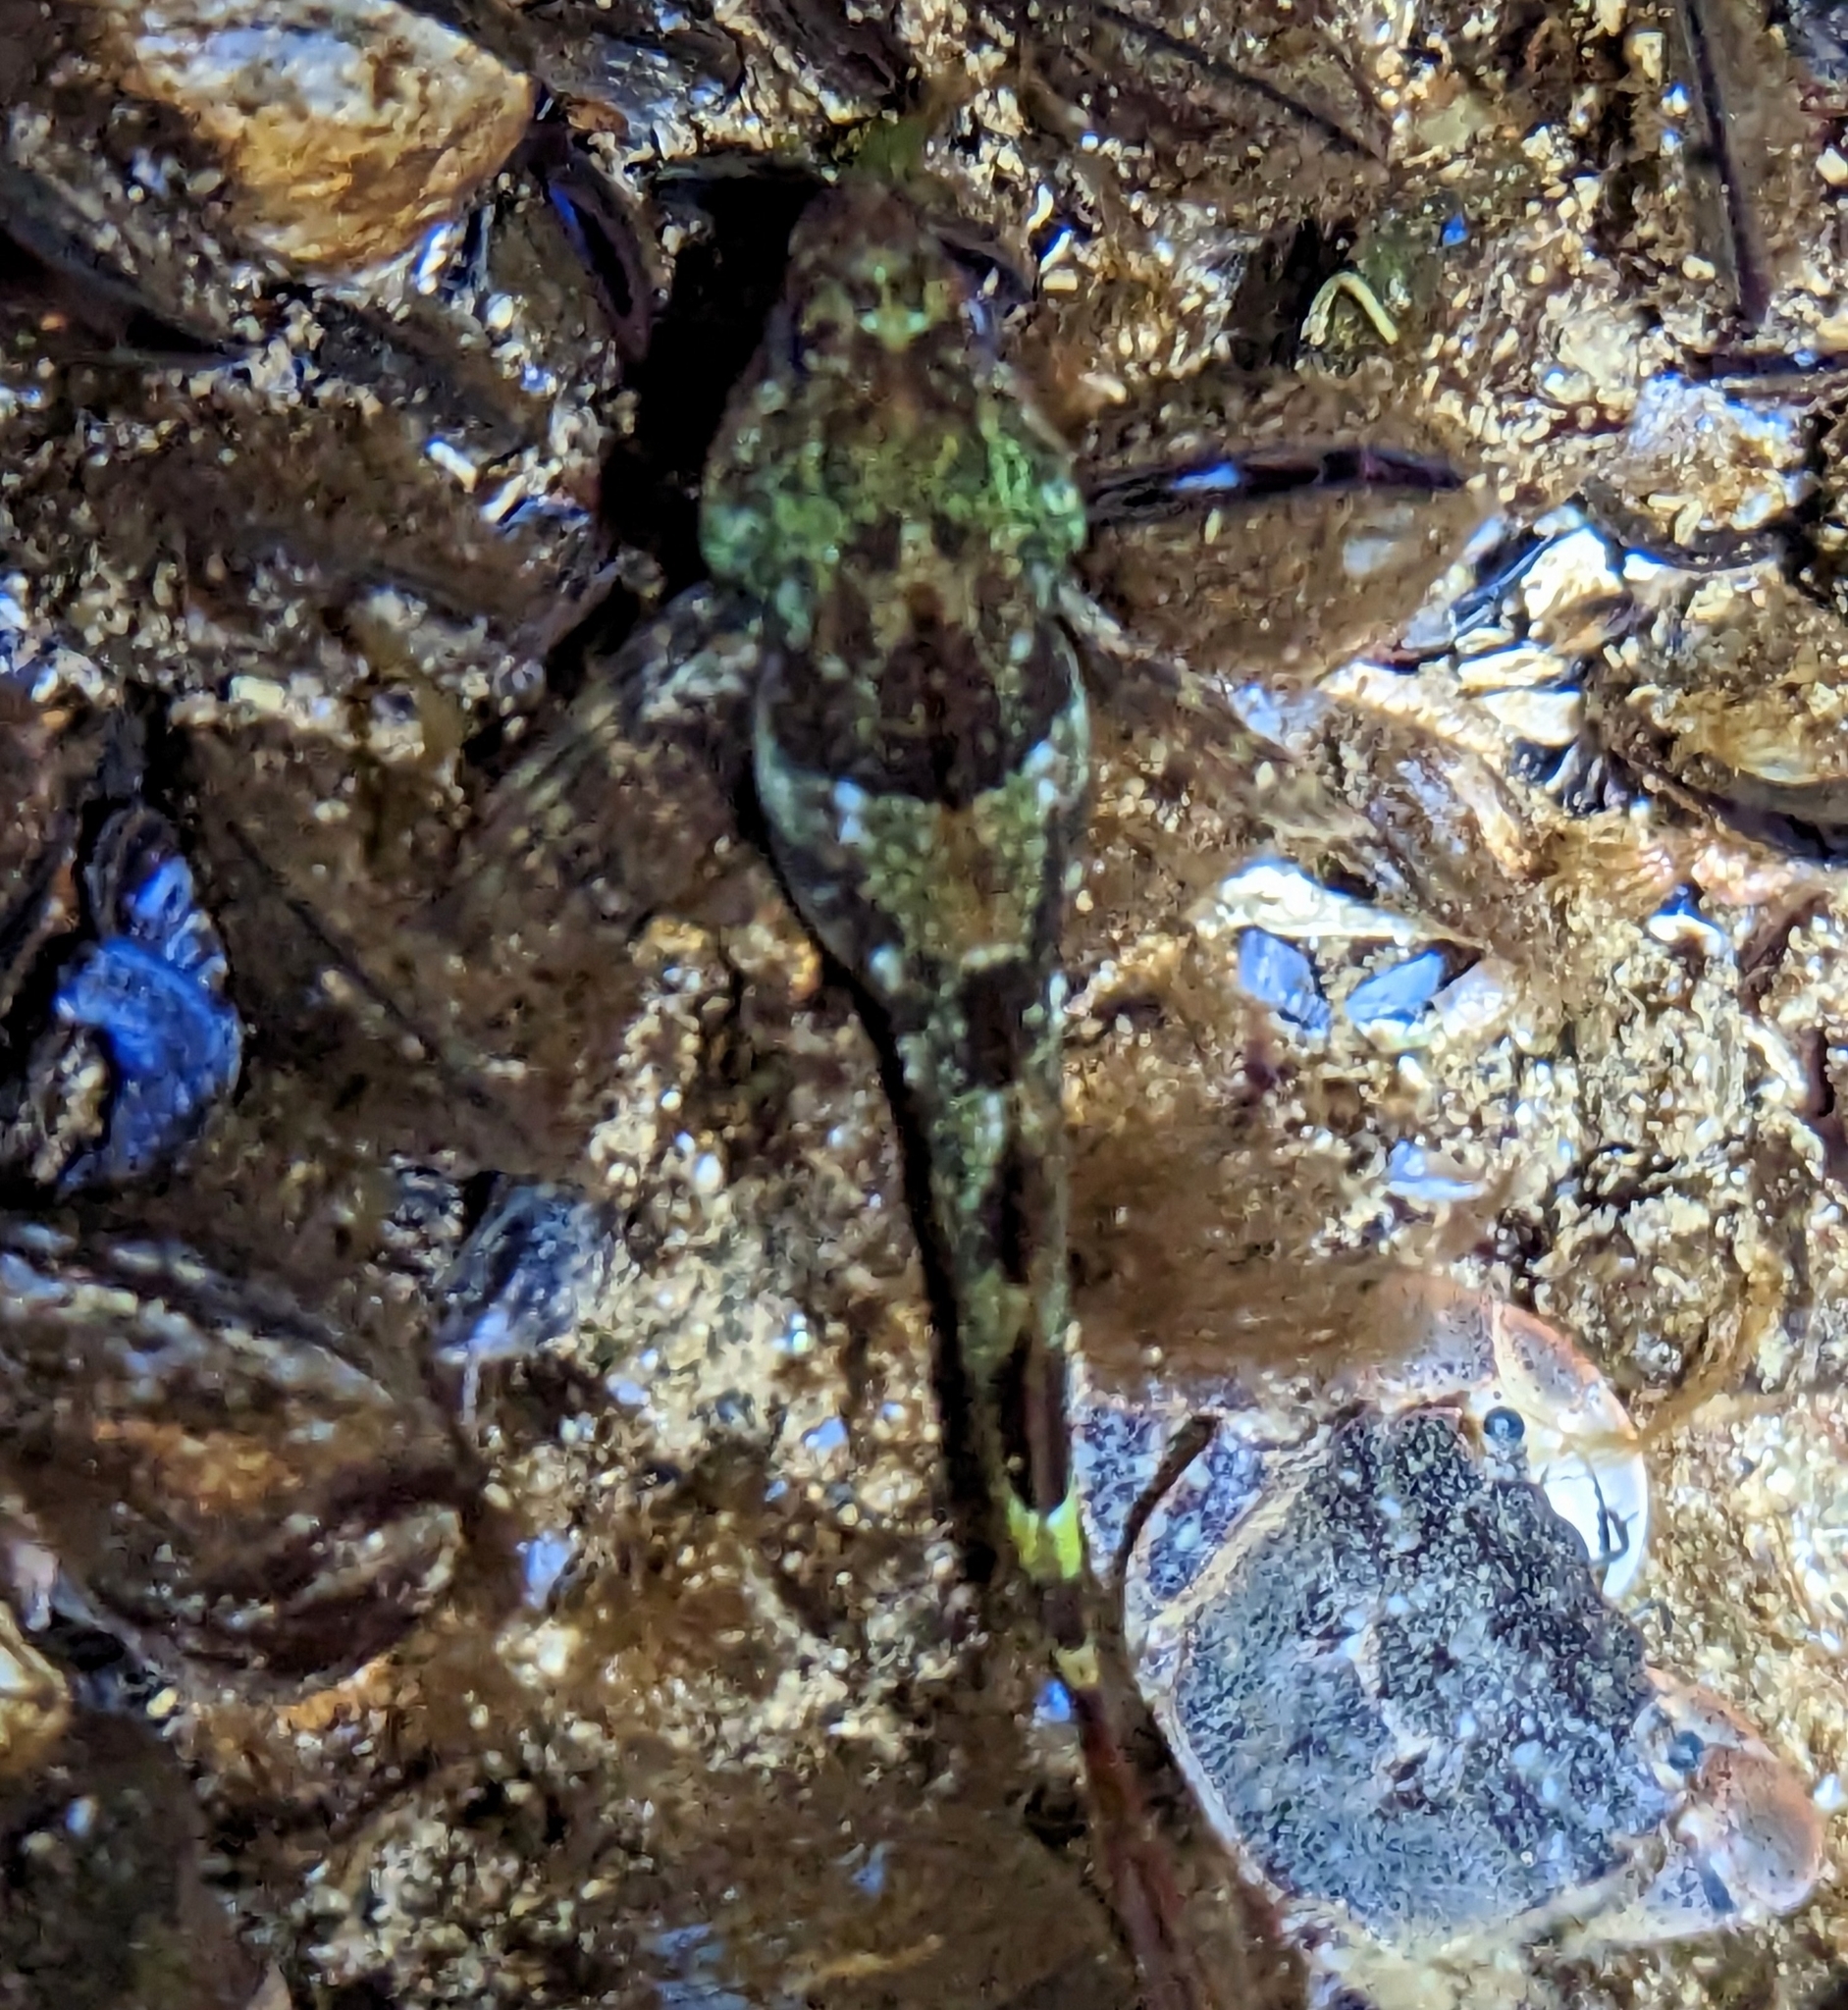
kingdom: Animalia
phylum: Chordata
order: Scorpaeniformes
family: Cottidae
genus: Oligocottus
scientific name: Oligocottus maculosus
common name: Tidepool sculpin
